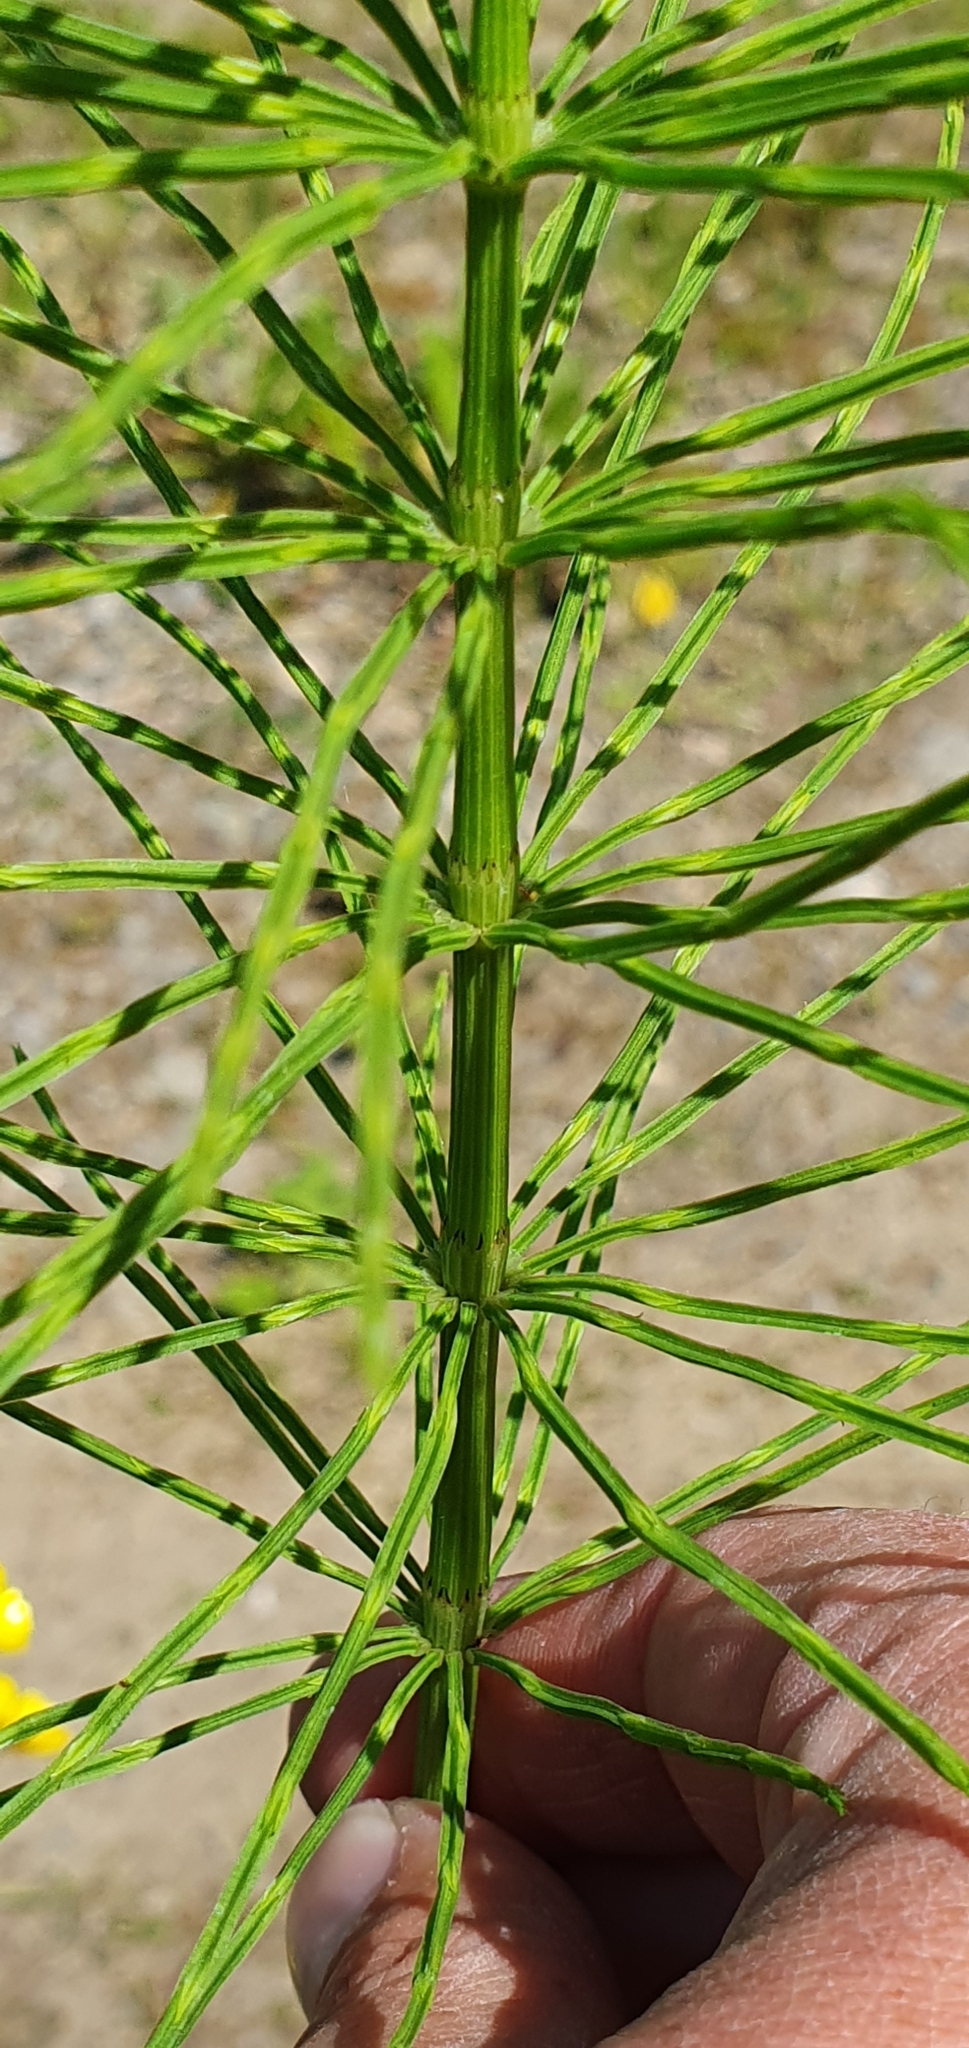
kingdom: Plantae
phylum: Tracheophyta
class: Polypodiopsida
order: Equisetales
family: Equisetaceae
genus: Equisetum
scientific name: Equisetum arvense
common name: Field horsetail
